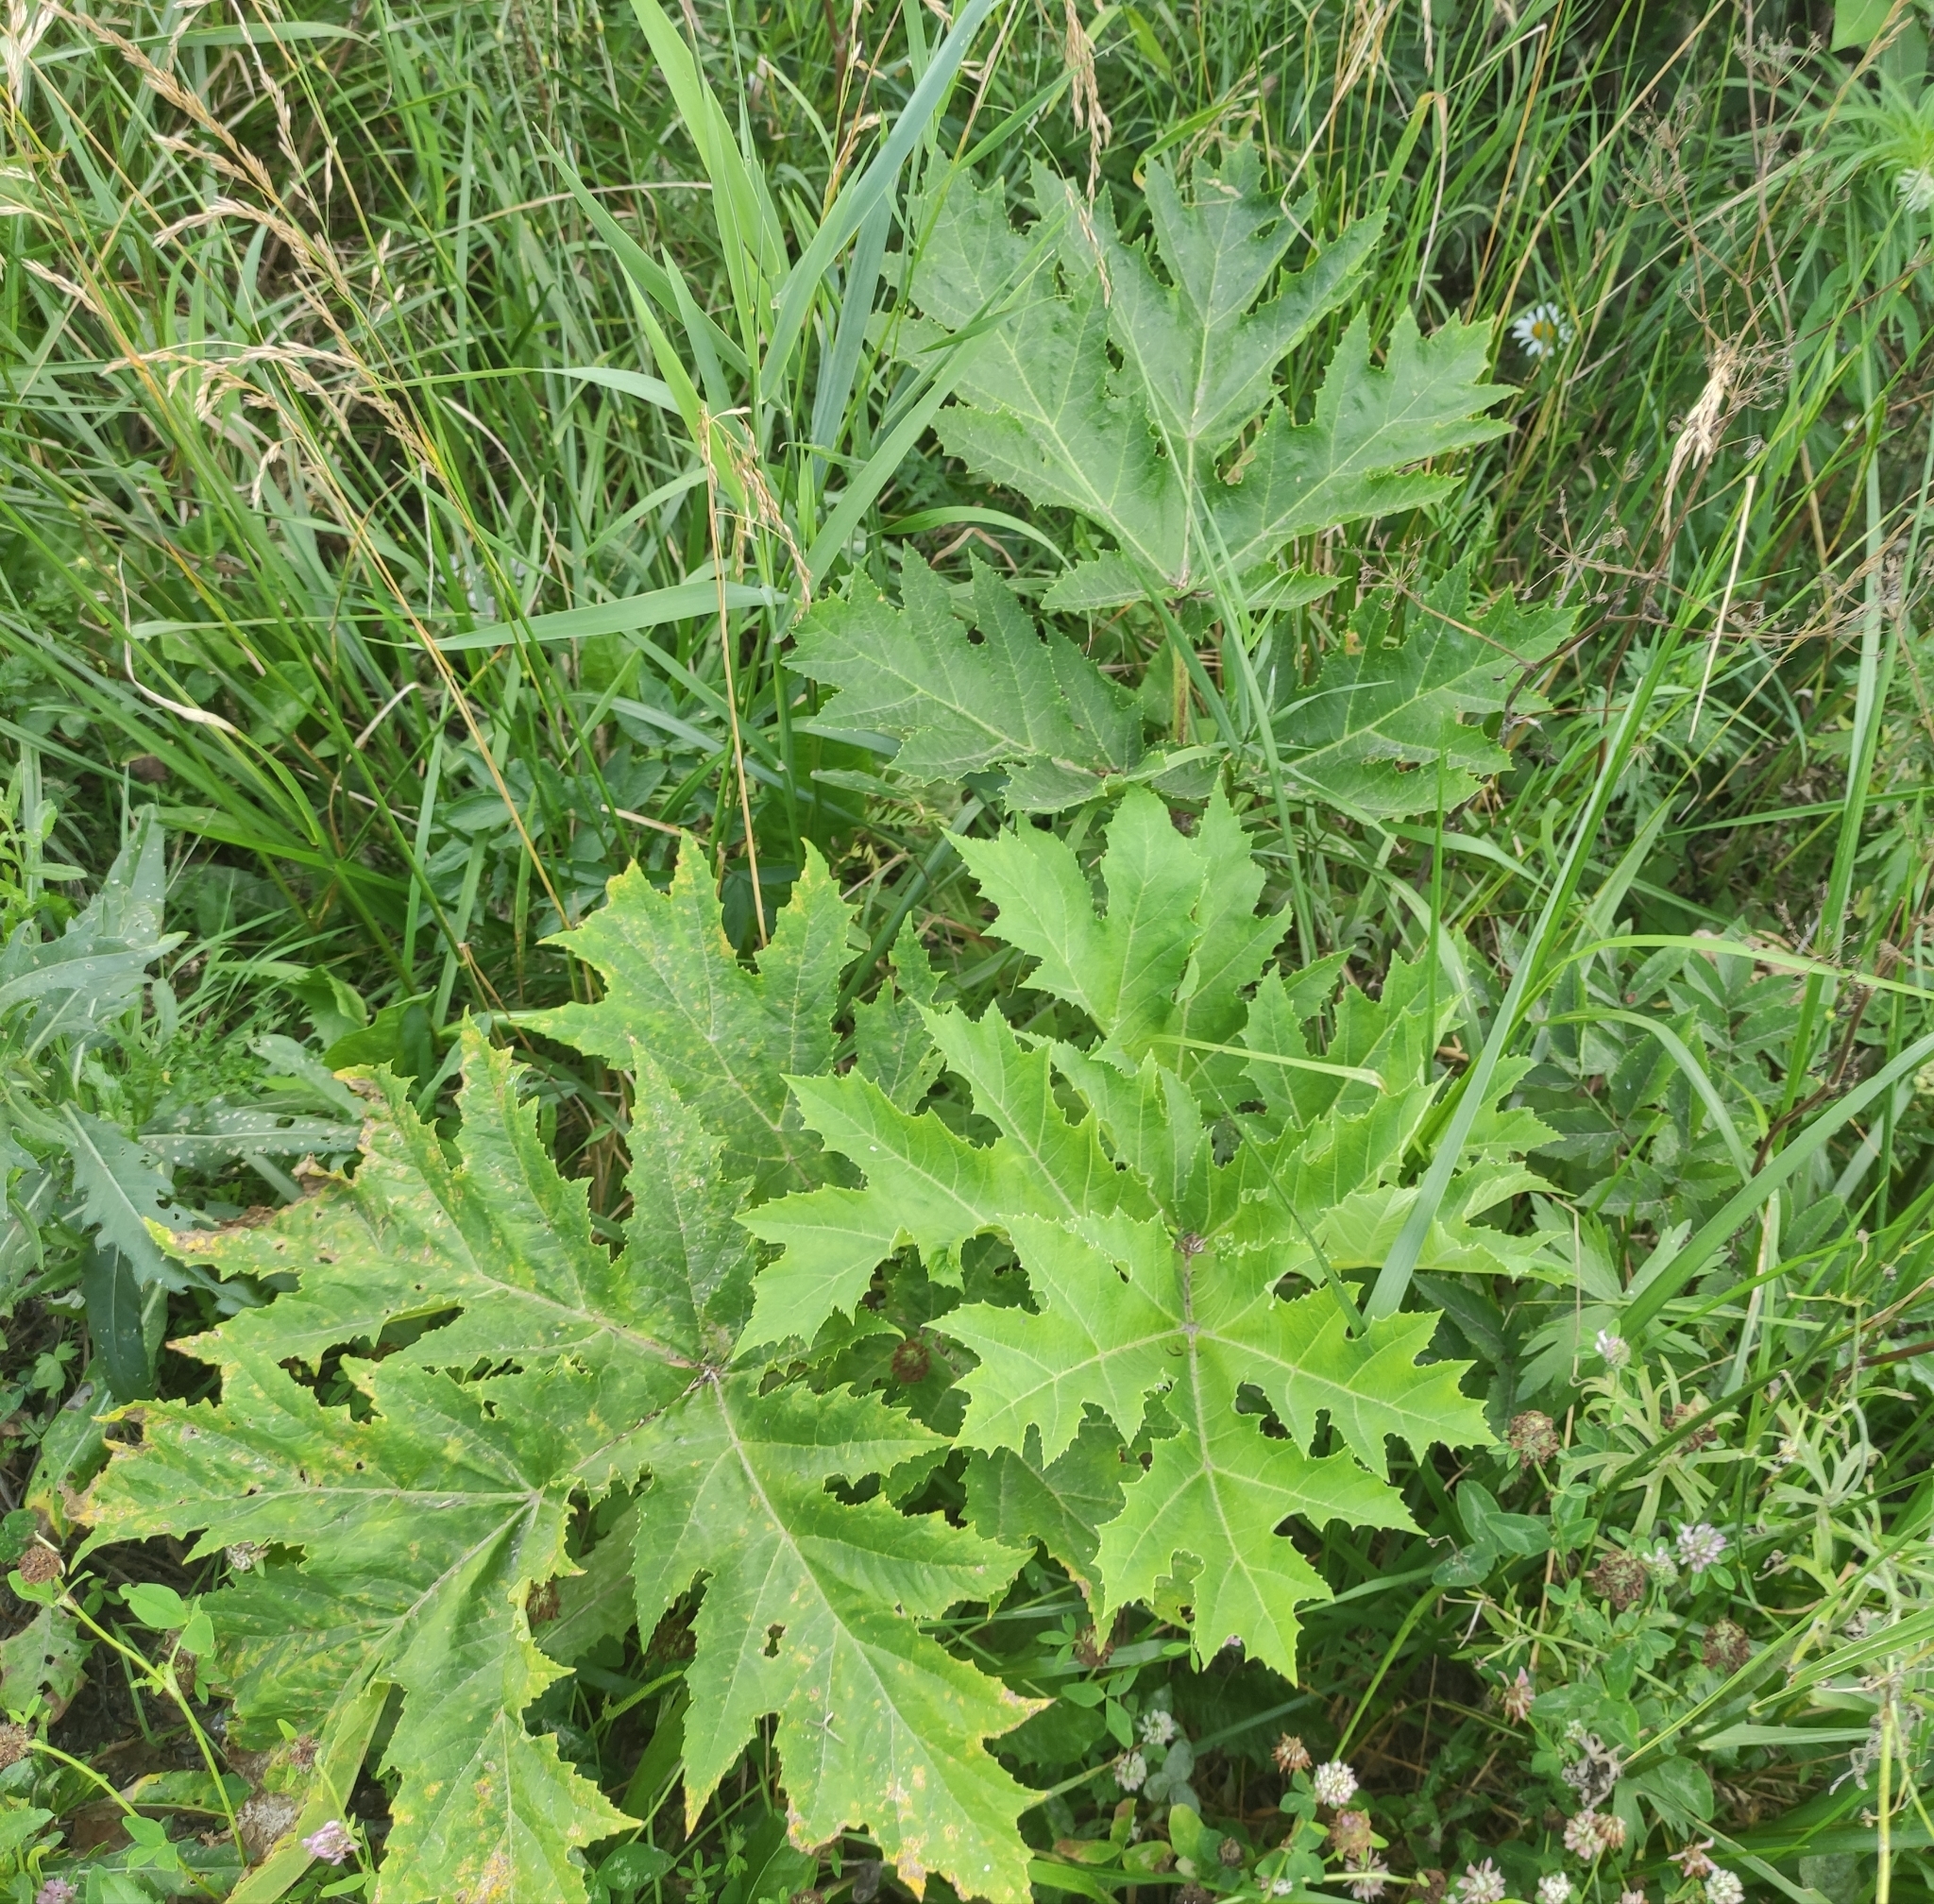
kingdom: Plantae
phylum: Tracheophyta
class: Magnoliopsida
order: Apiales
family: Apiaceae
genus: Heracleum
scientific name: Heracleum sosnowskyi
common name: Sosnowsky's hogweed
